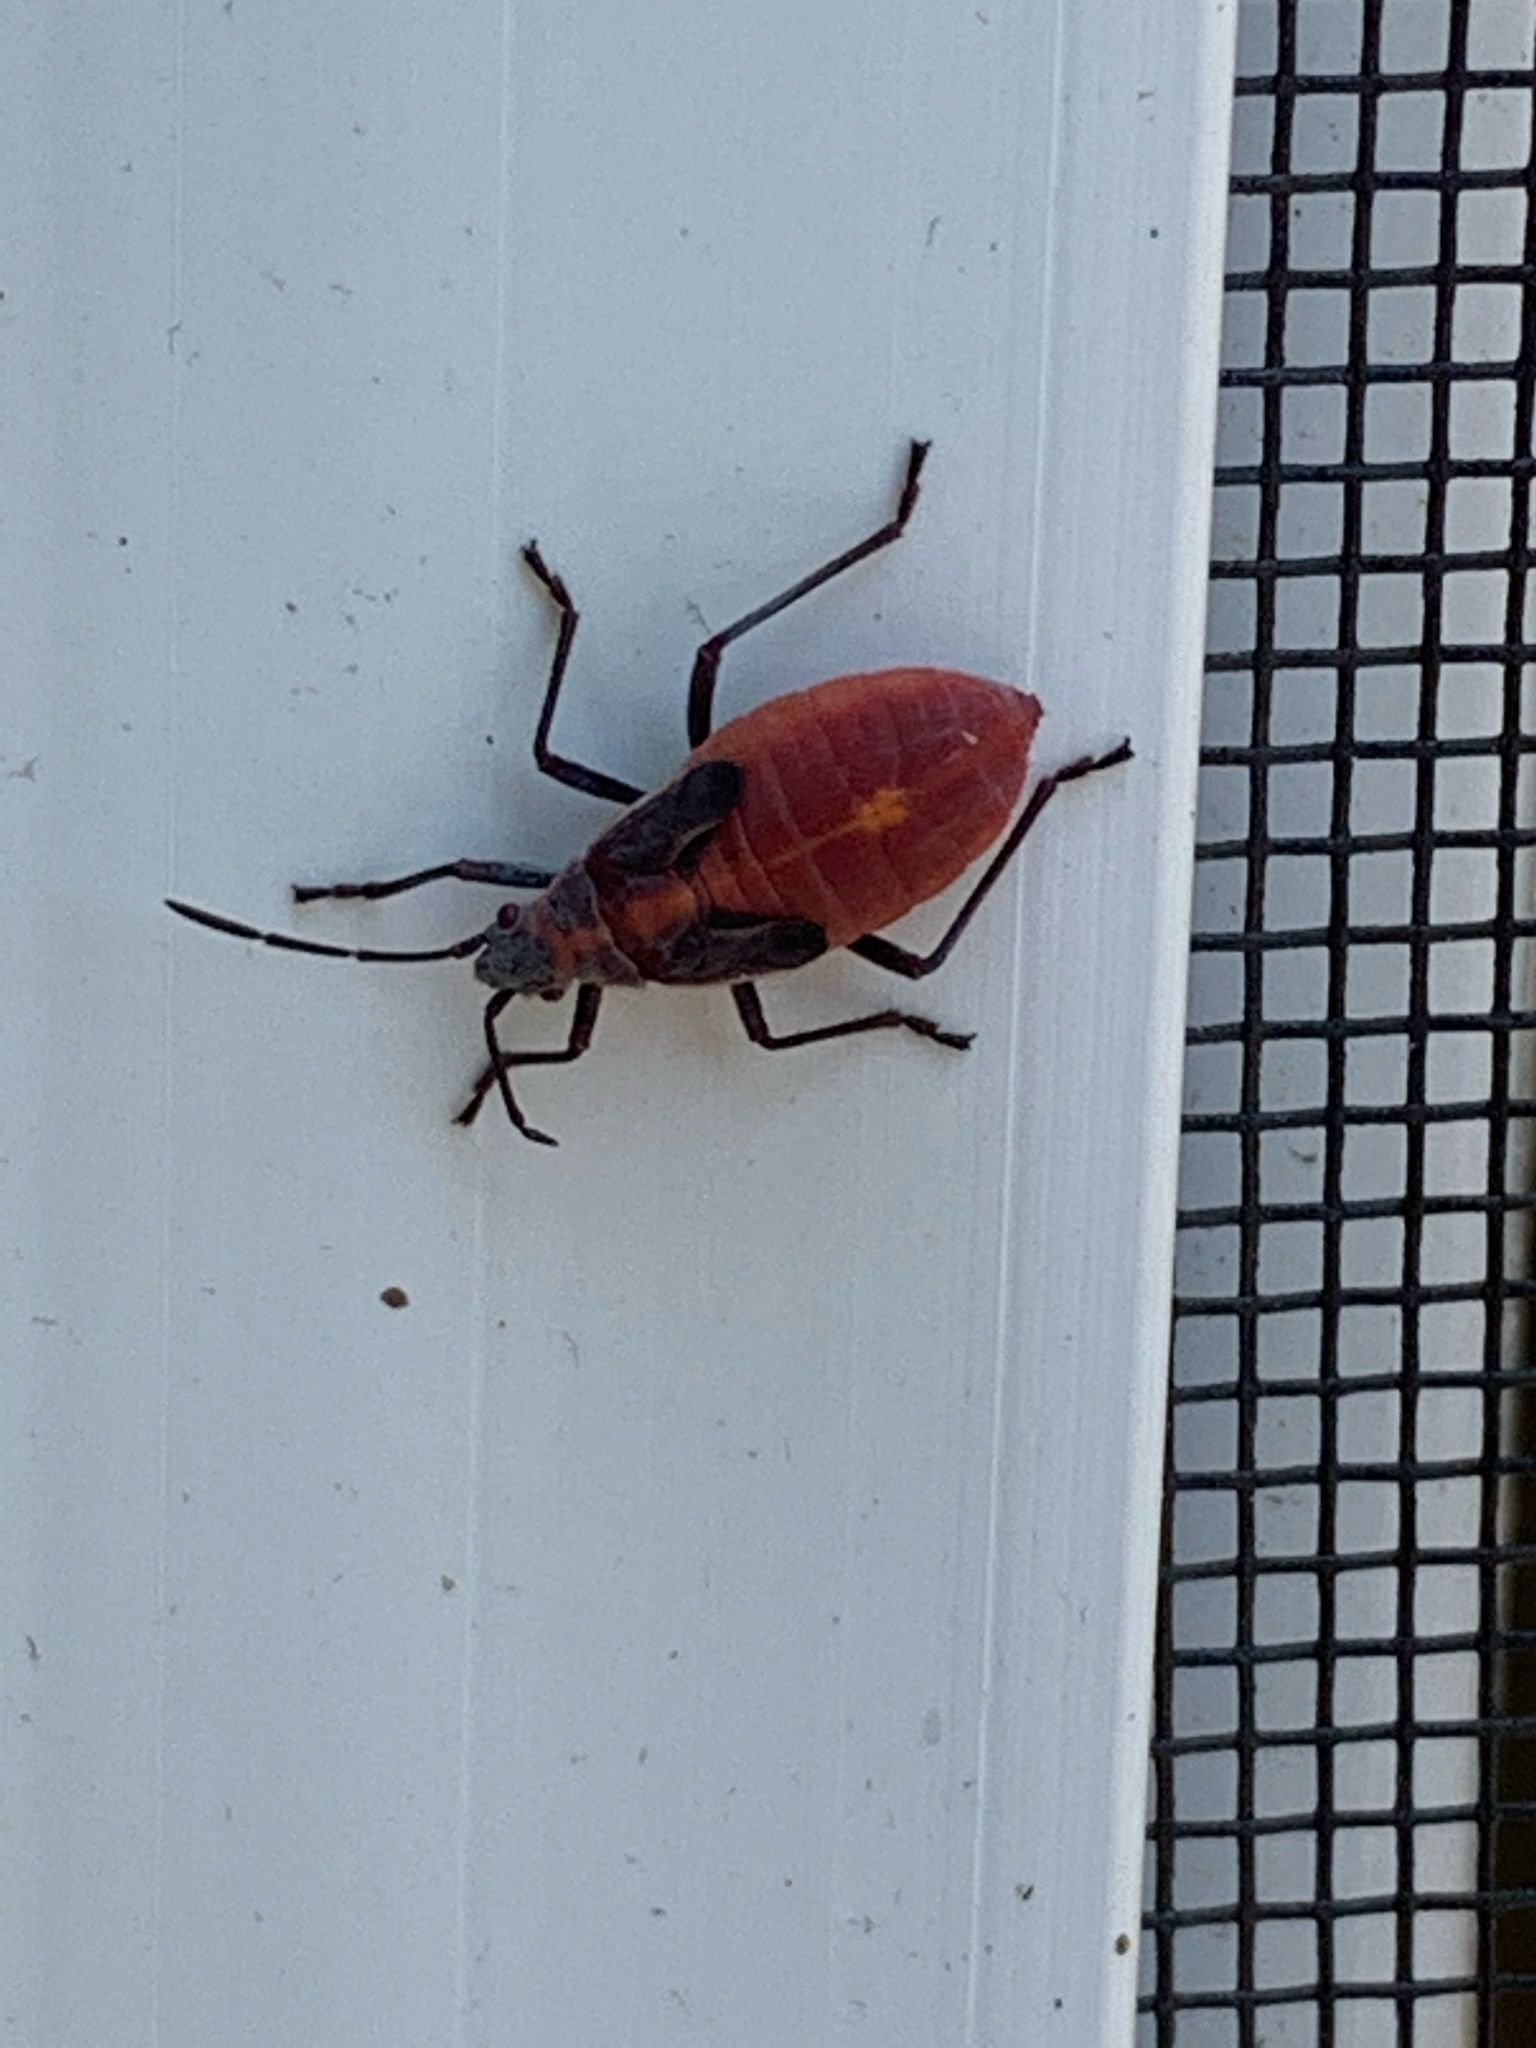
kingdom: Animalia
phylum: Arthropoda
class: Insecta
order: Hemiptera
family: Rhopalidae
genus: Boisea
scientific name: Boisea trivittata
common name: Boxelder bug
